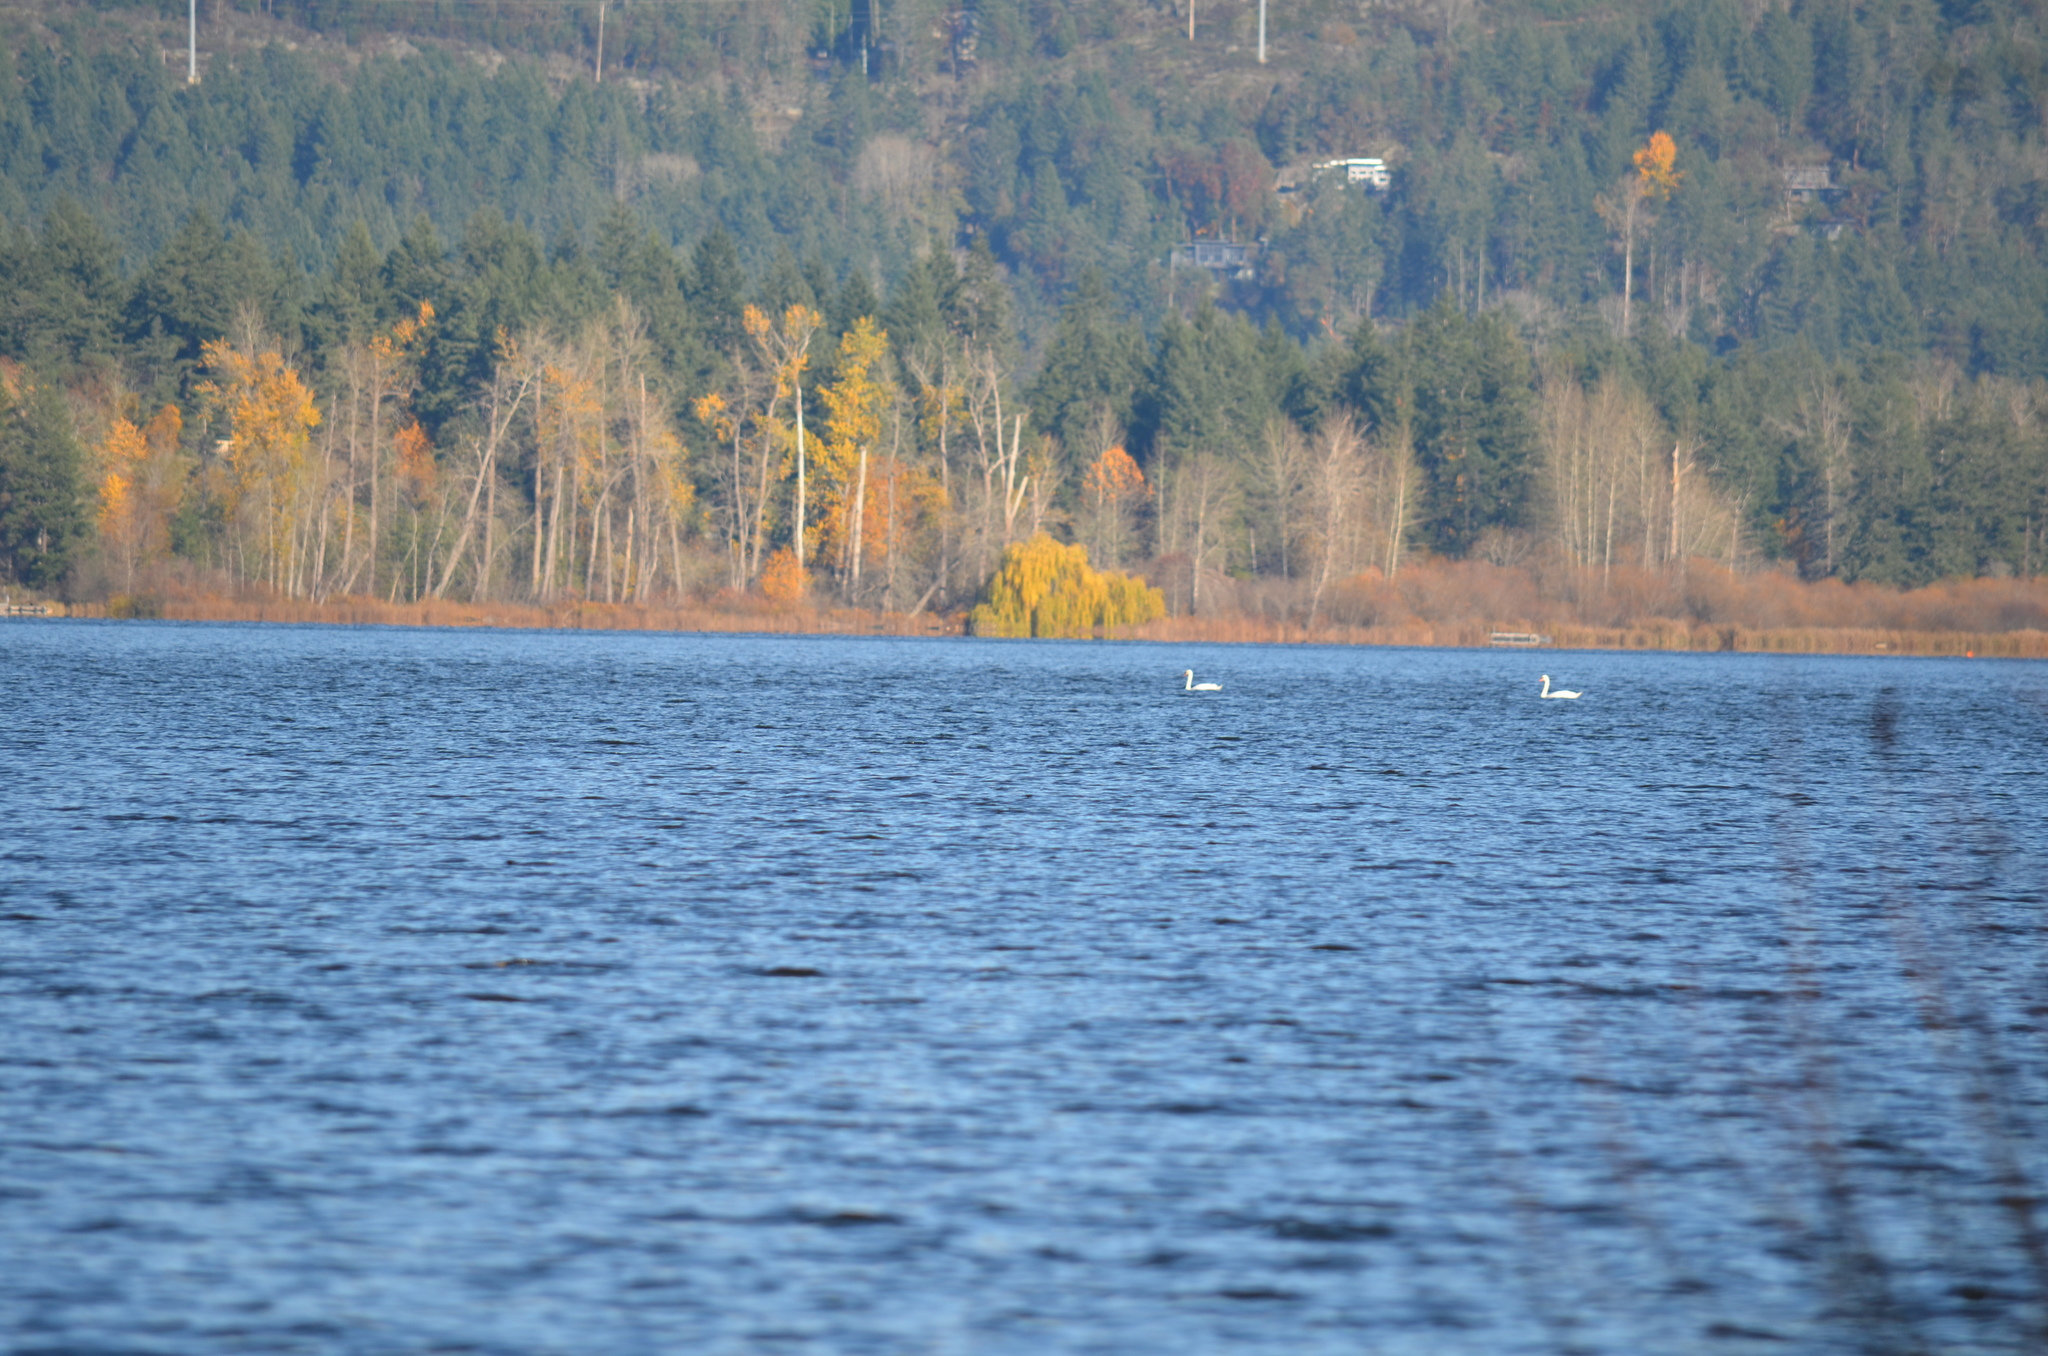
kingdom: Animalia
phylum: Chordata
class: Aves
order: Anseriformes
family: Anatidae
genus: Cygnus
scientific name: Cygnus olor
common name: Mute swan
